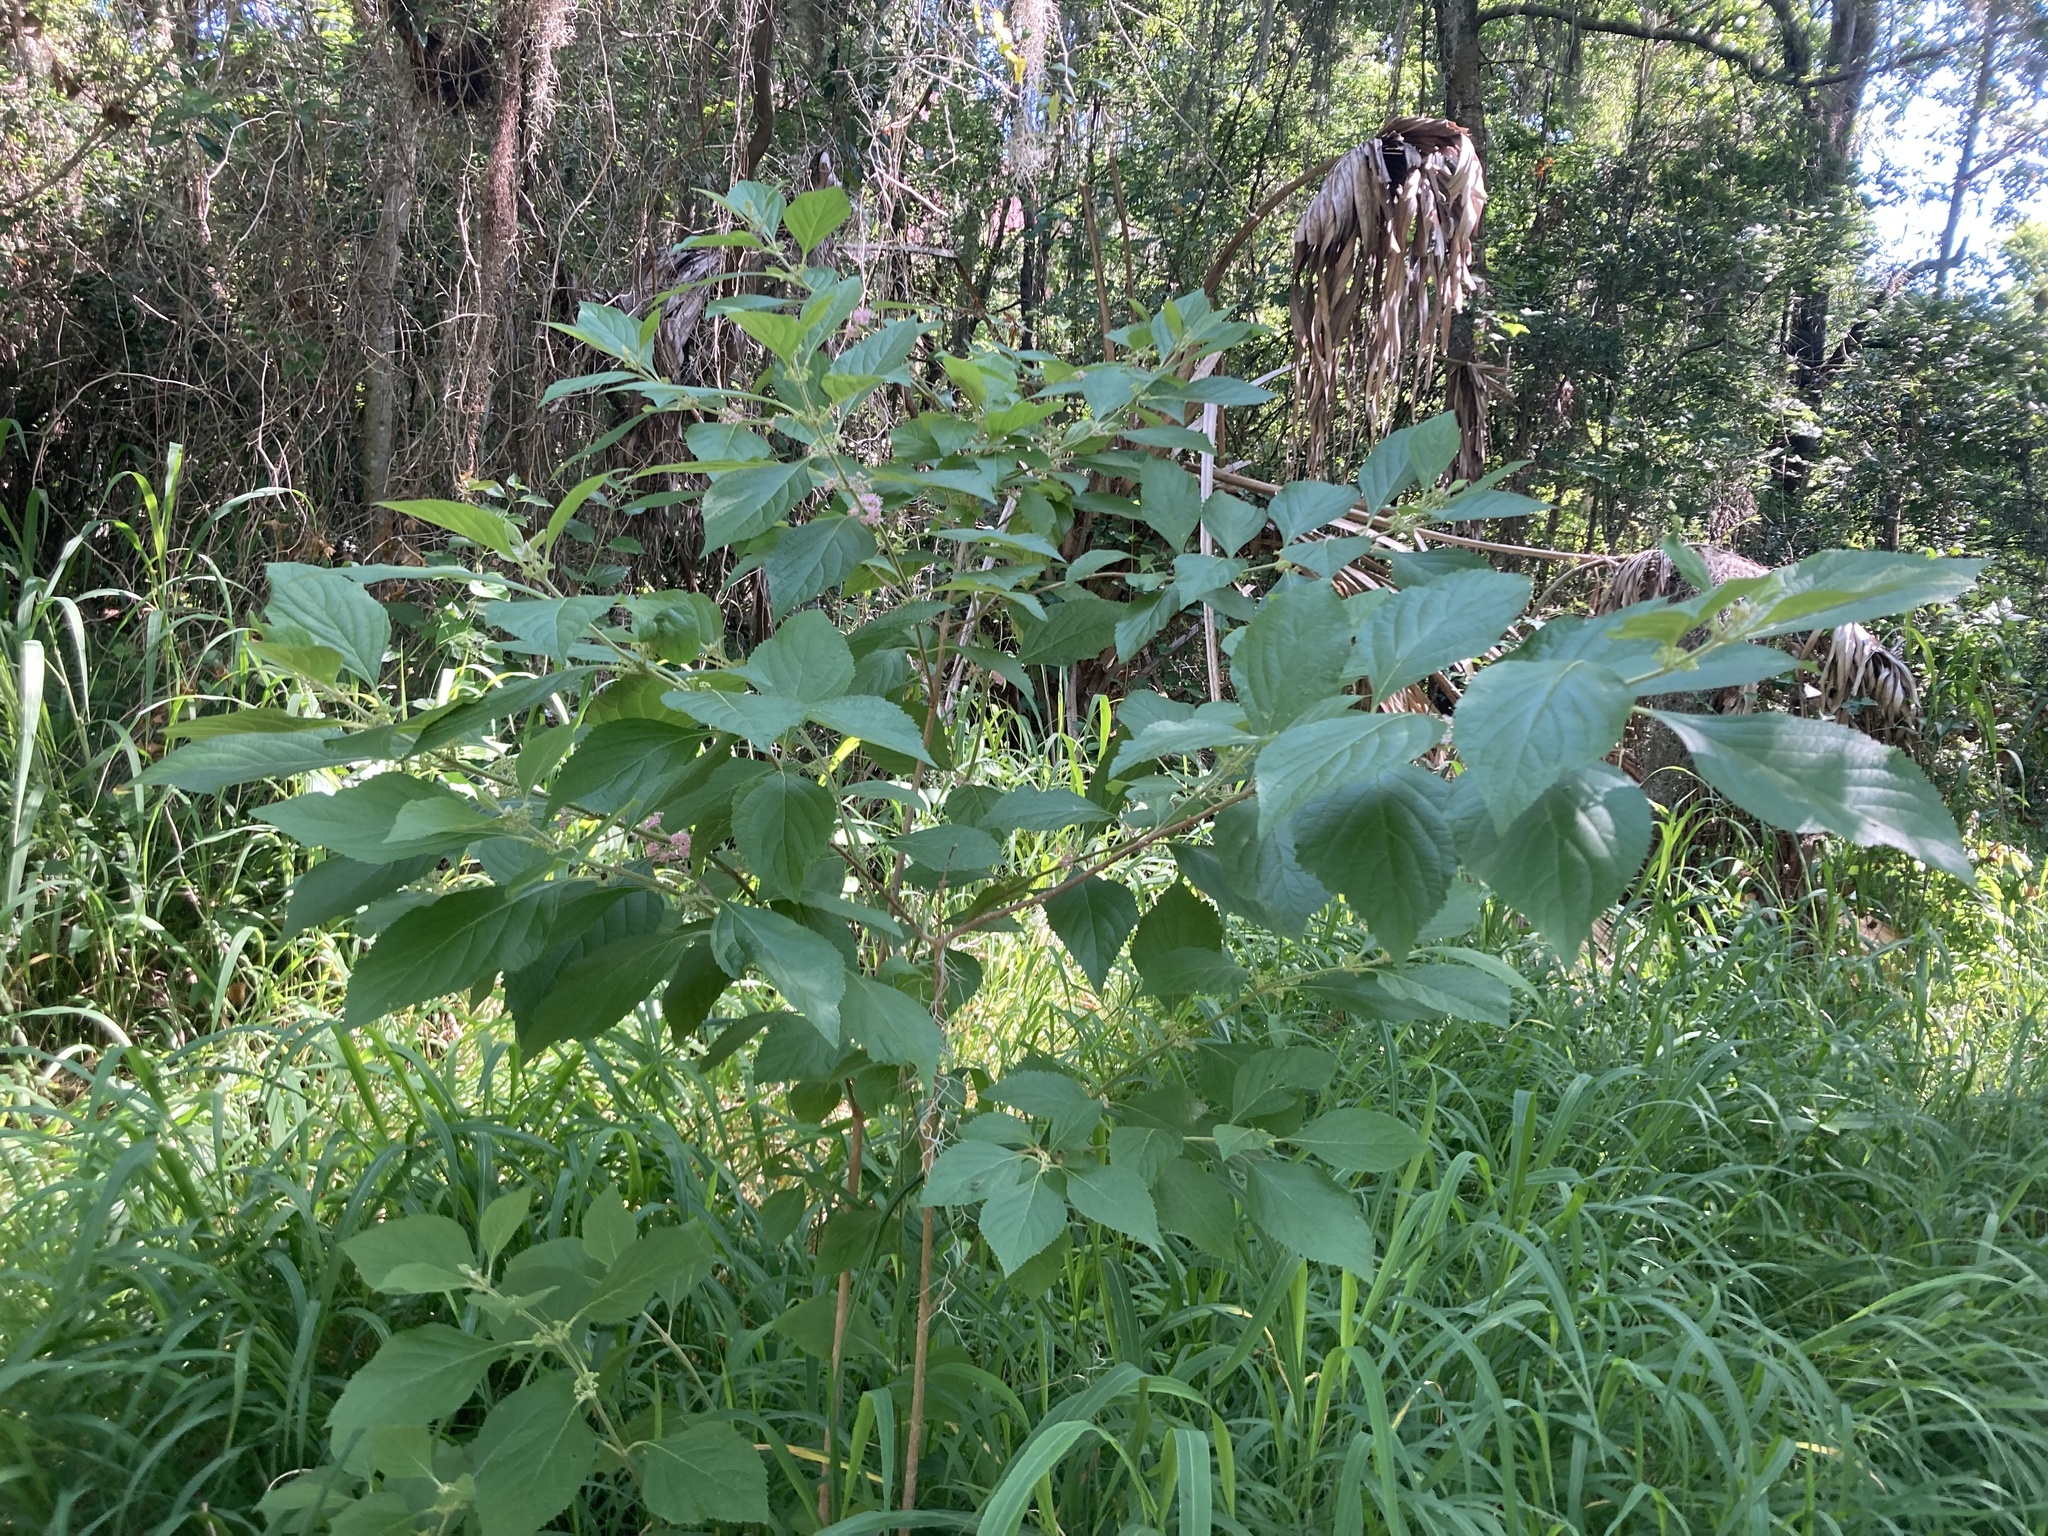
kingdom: Plantae
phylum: Tracheophyta
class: Magnoliopsida
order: Lamiales
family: Lamiaceae
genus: Callicarpa
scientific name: Callicarpa americana
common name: American beautyberry
